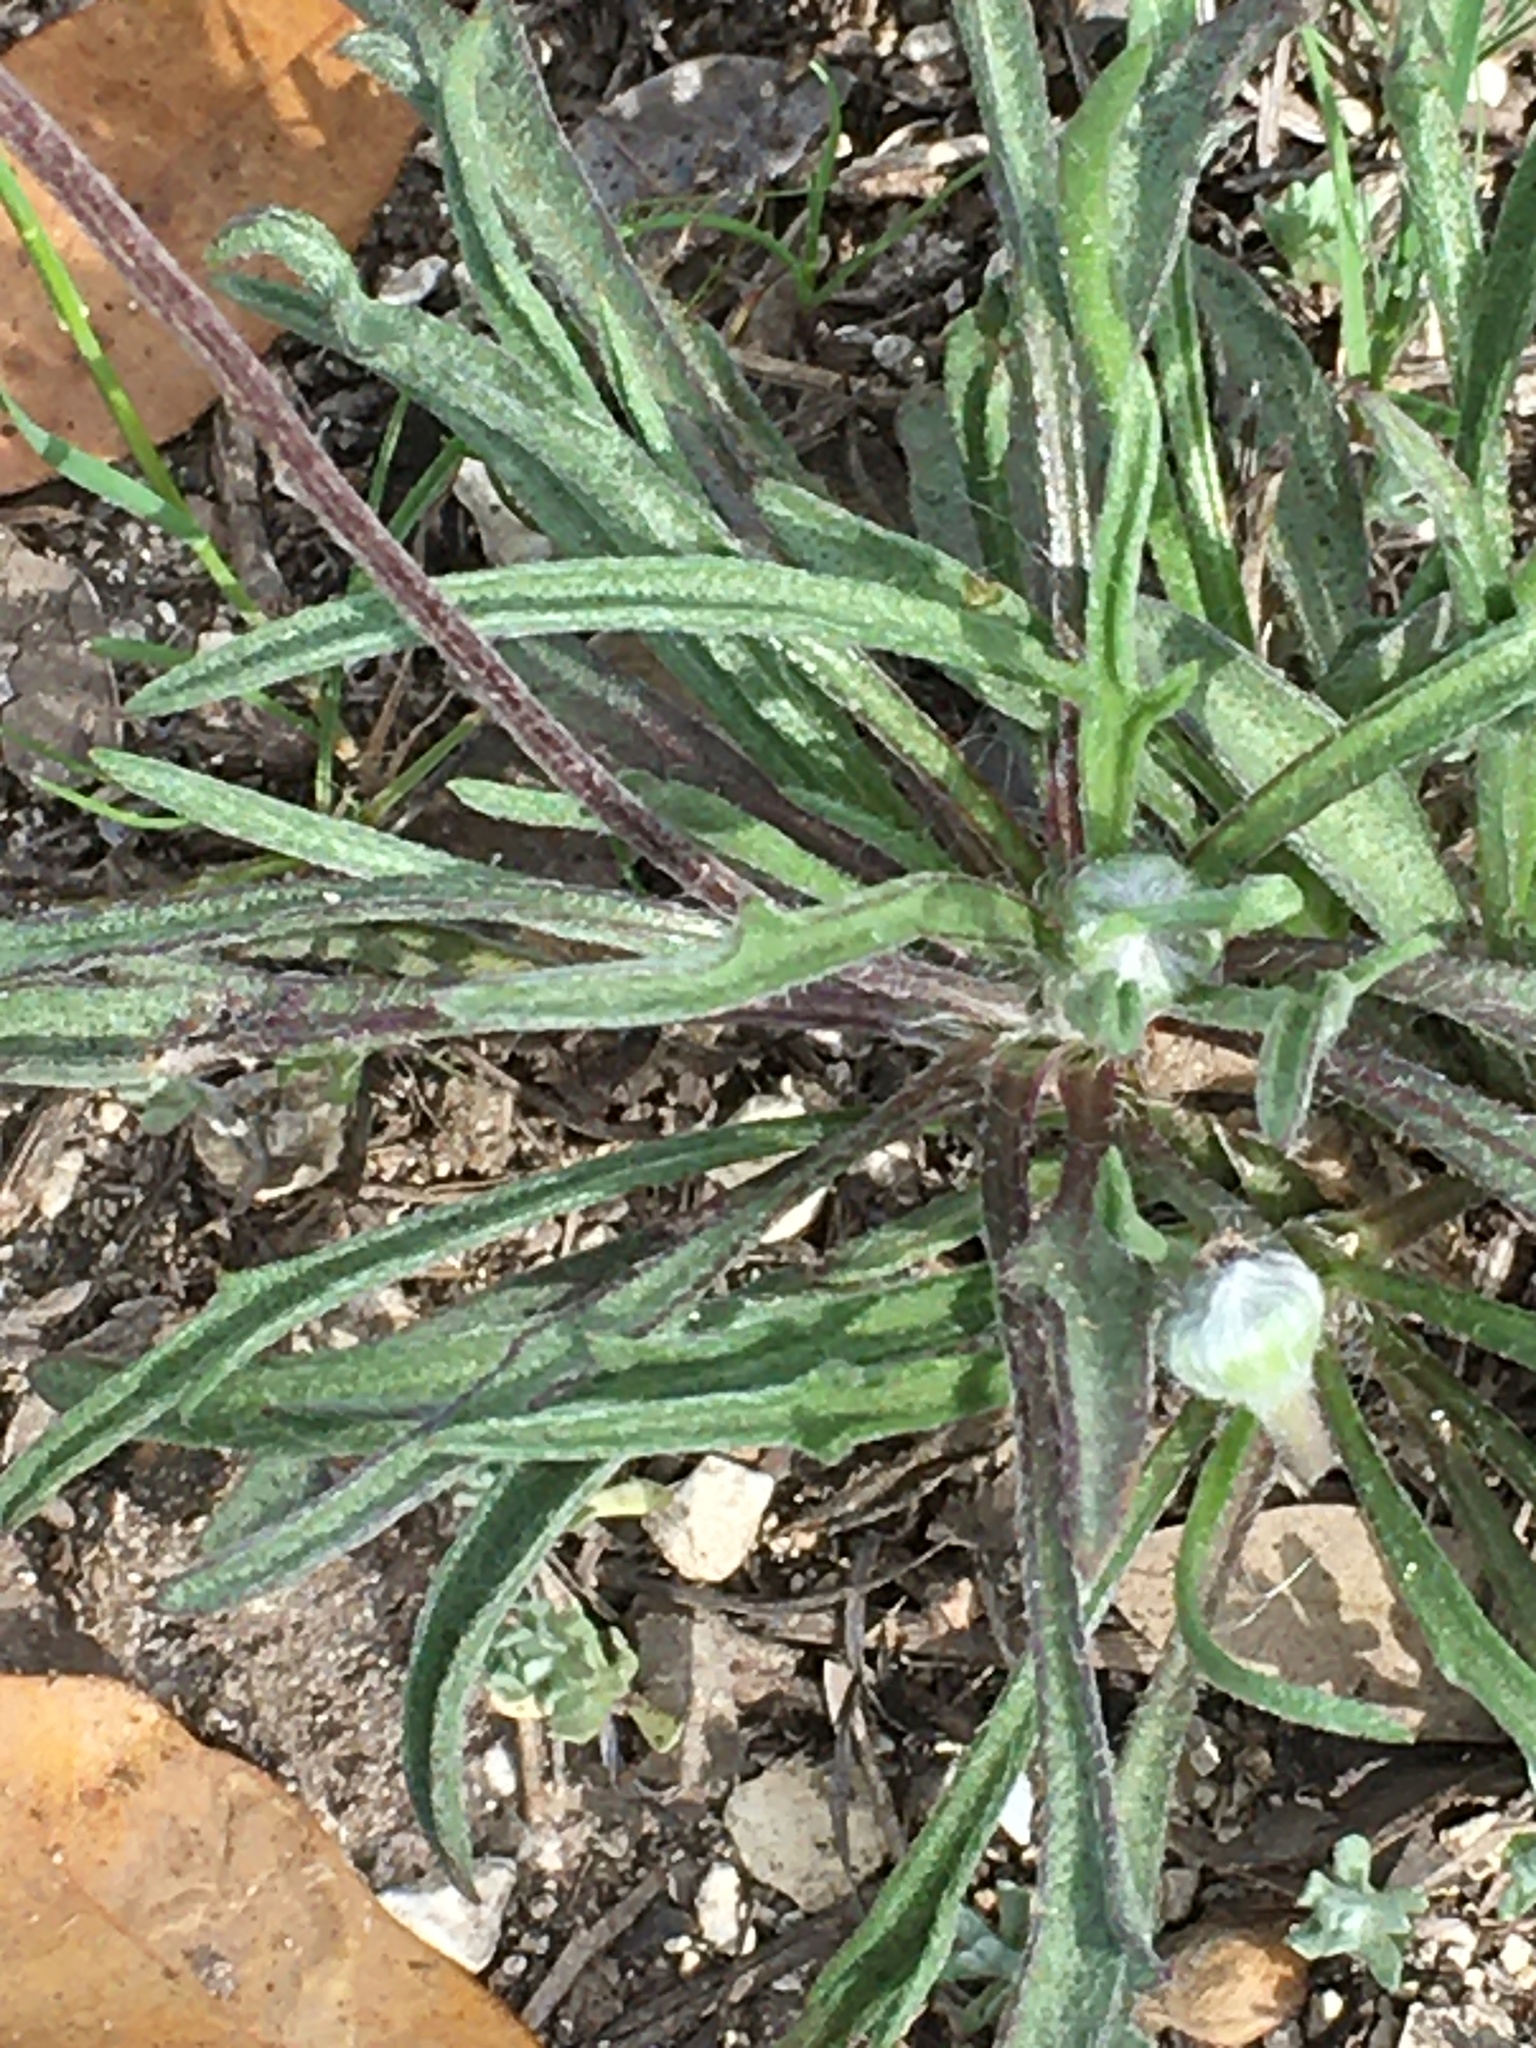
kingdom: Plantae
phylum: Tracheophyta
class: Magnoliopsida
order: Asterales
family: Asteraceae
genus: Tetraneuris
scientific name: Tetraneuris scaposa
